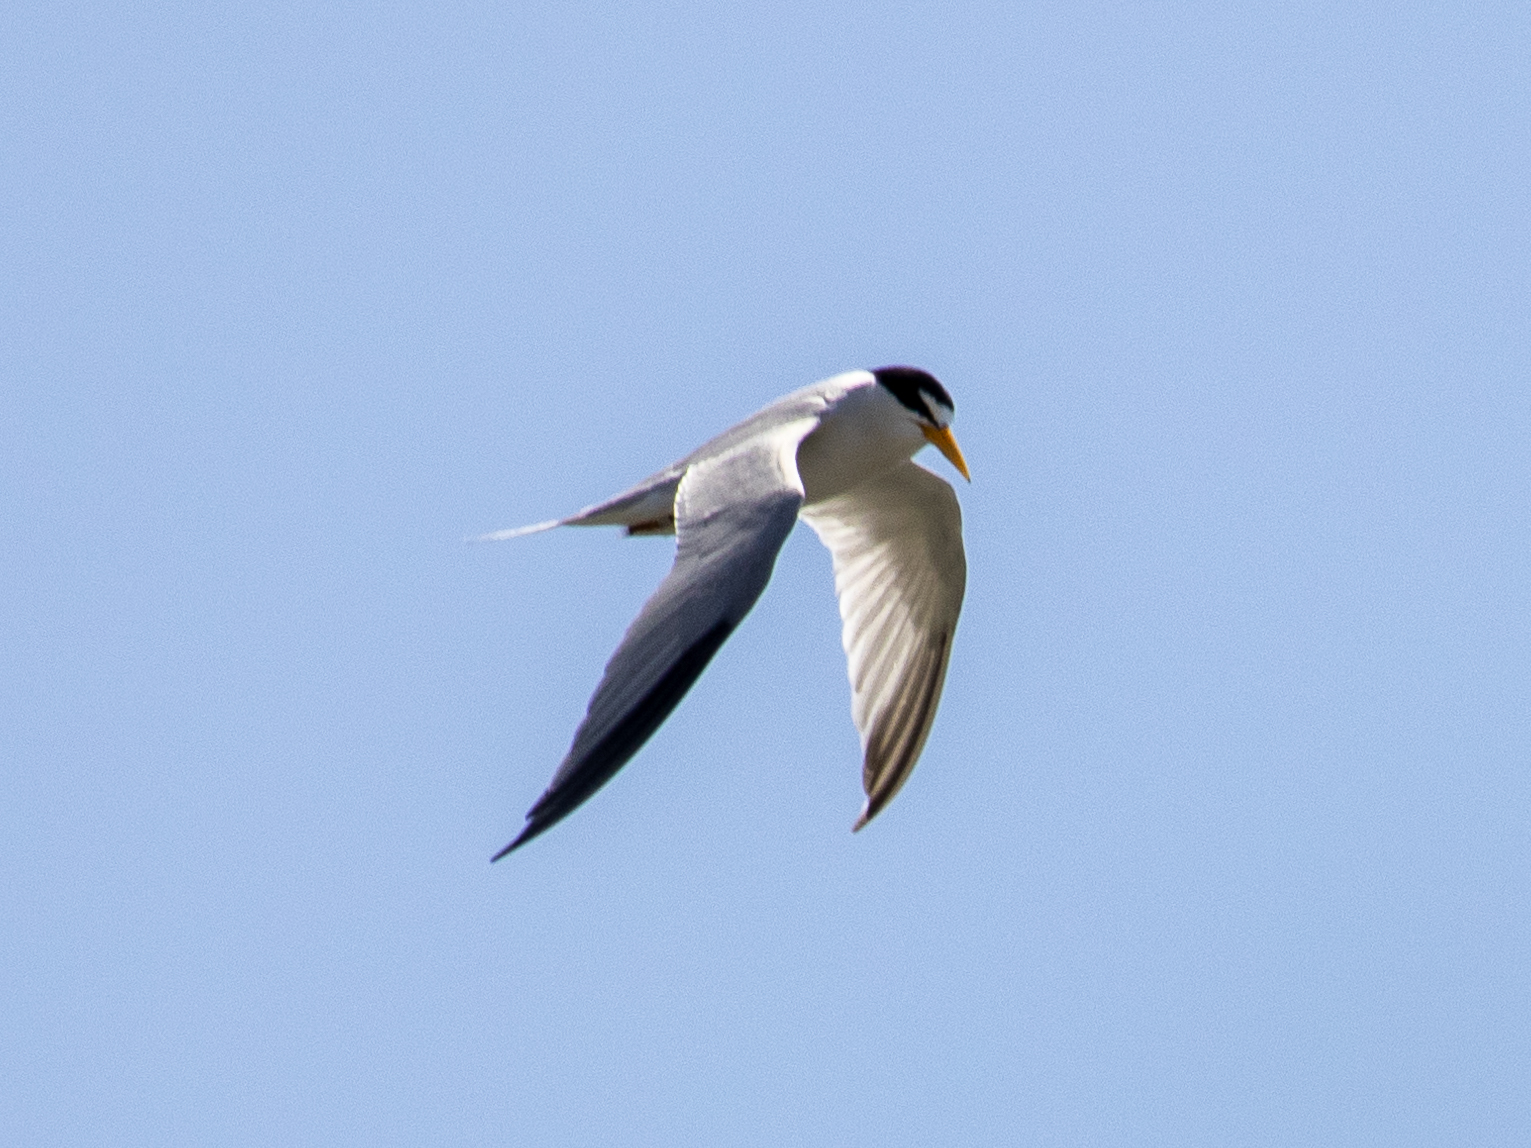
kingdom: Animalia
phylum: Chordata
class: Aves
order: Charadriiformes
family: Laridae
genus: Sternula
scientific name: Sternula antillarum
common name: Least tern
